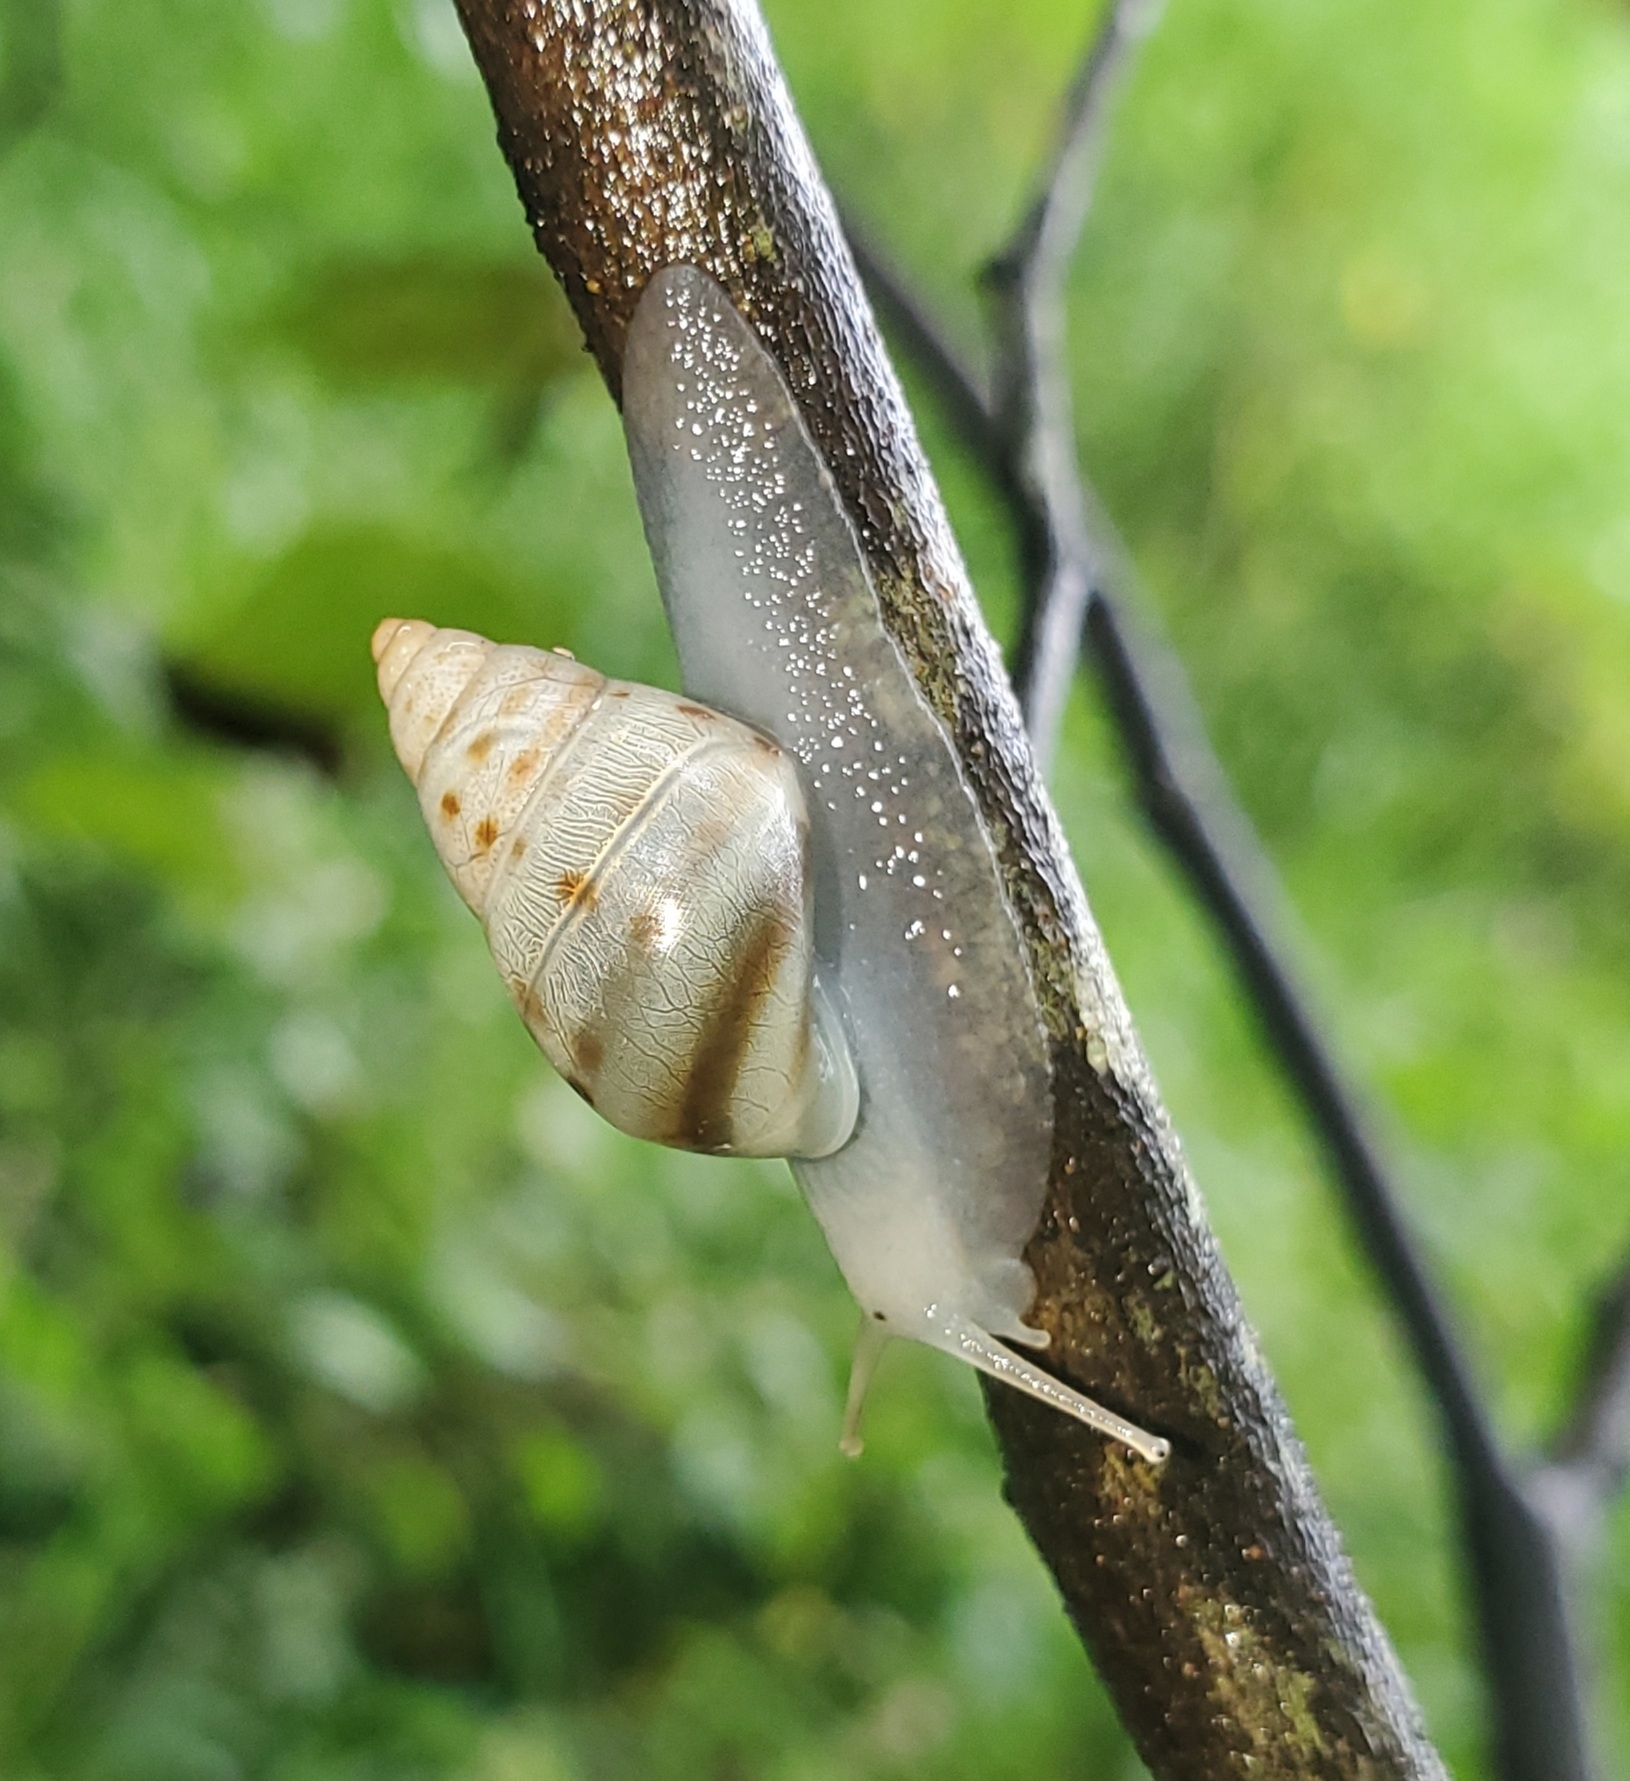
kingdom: Animalia
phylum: Mollusca
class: Gastropoda
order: Stylommatophora
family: Bulimulidae
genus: Drymaeus
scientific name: Drymaeus dormani
